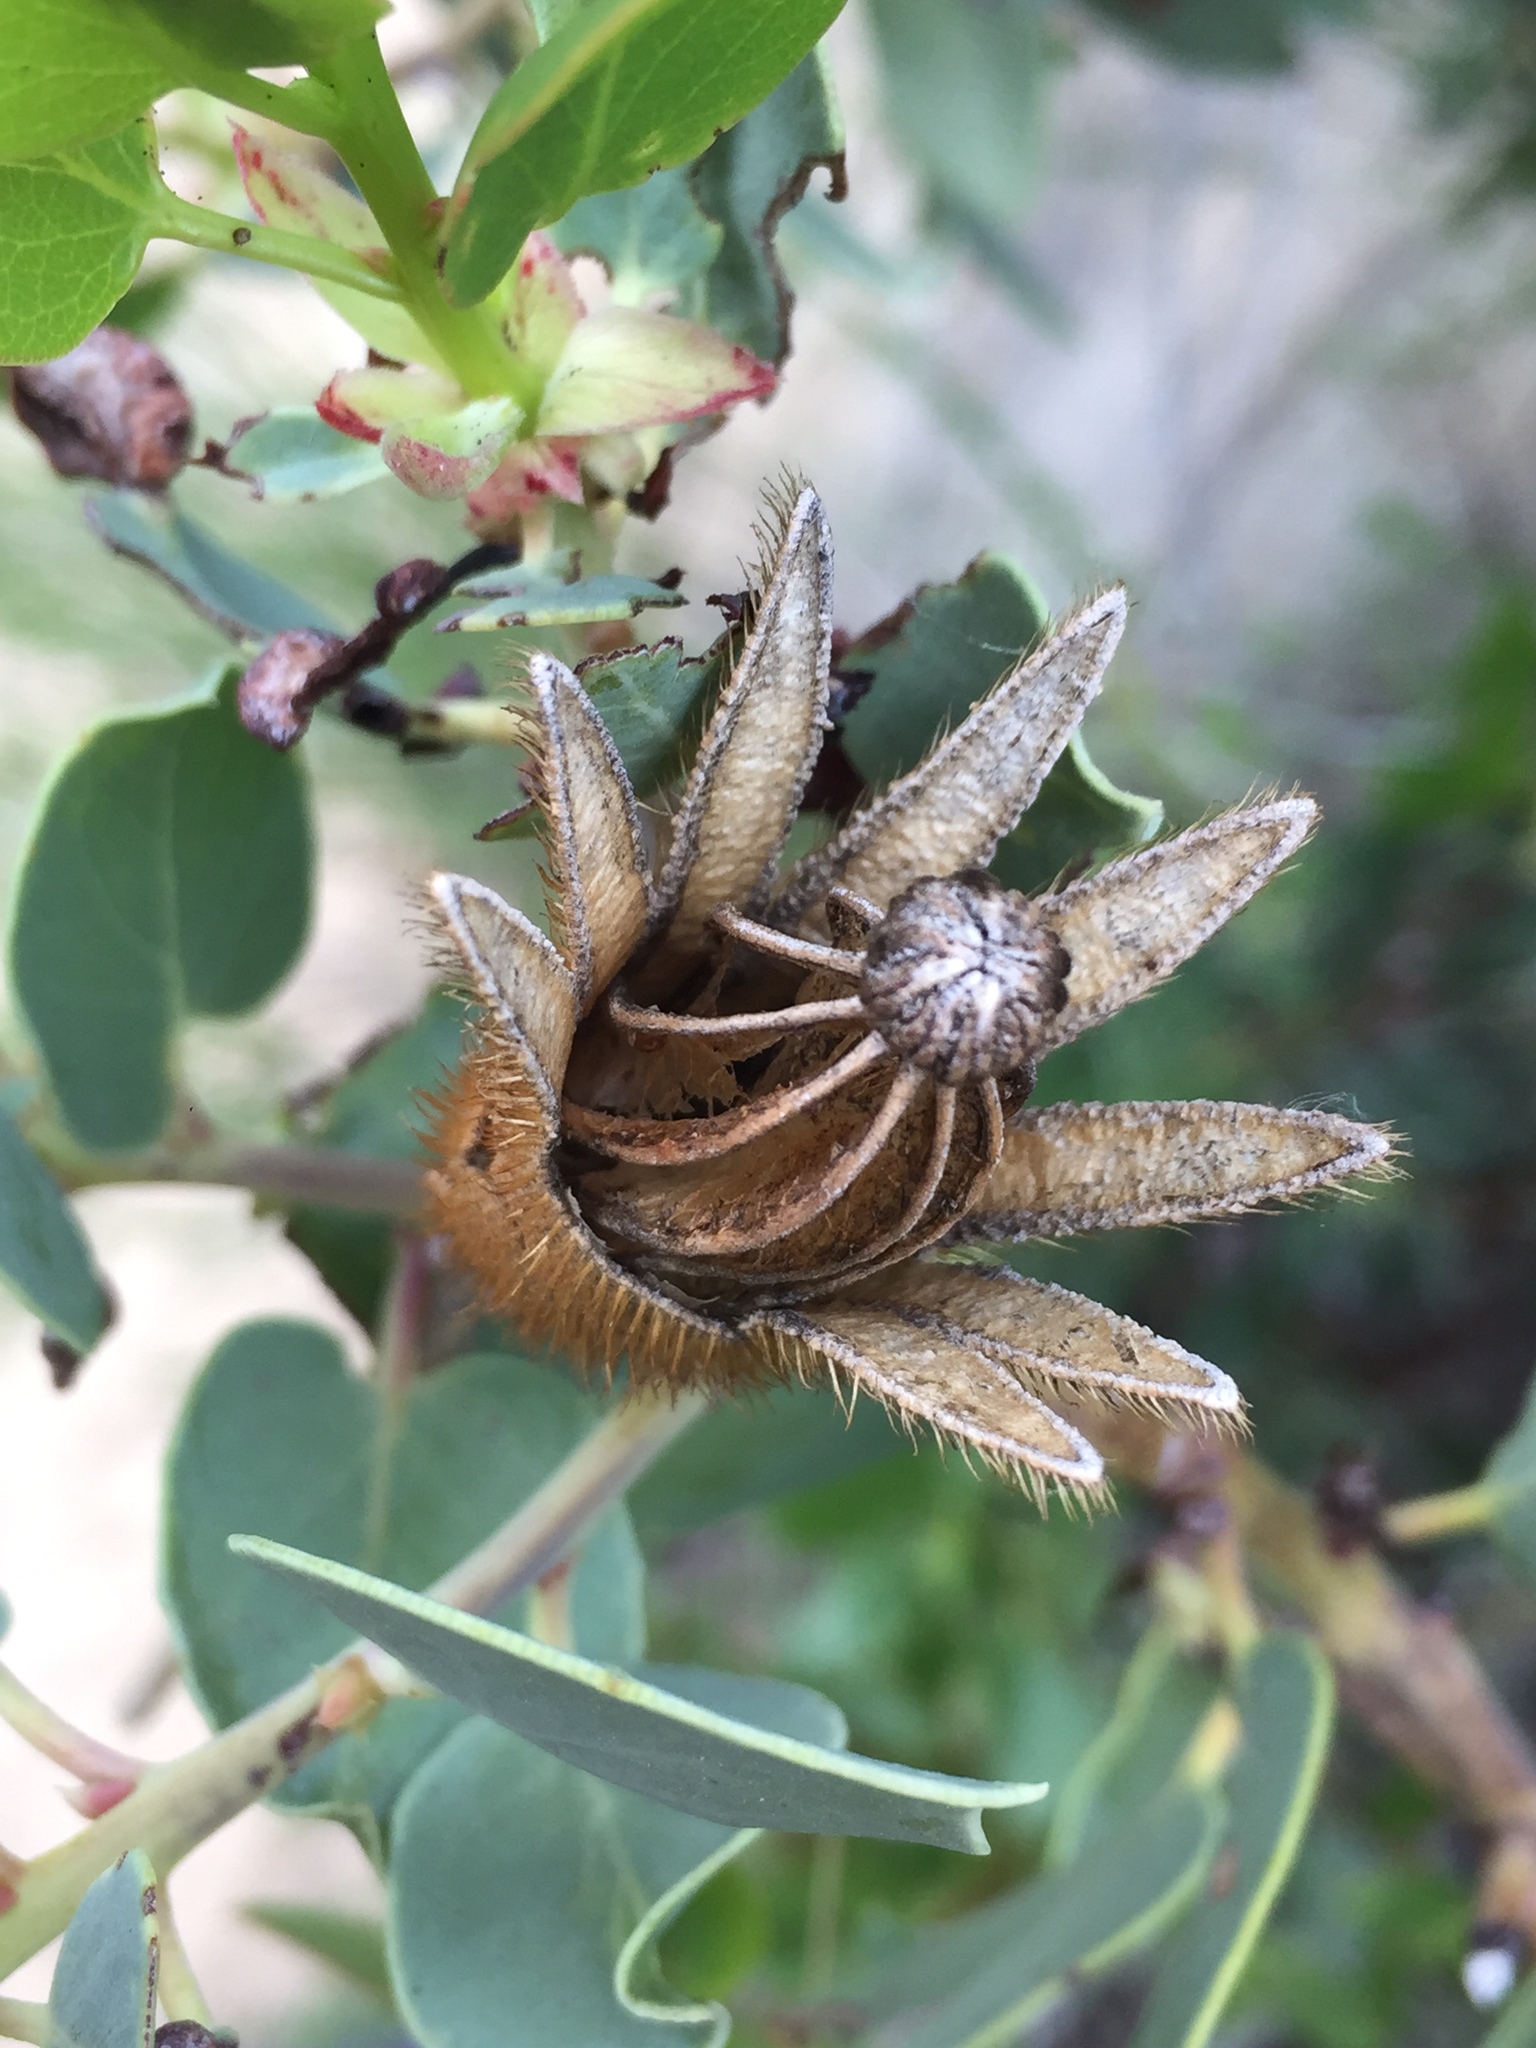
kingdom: Plantae
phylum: Tracheophyta
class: Magnoliopsida
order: Ranunculales
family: Papaveraceae
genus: Romneya
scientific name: Romneya coulteri
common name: California tree-poppy
